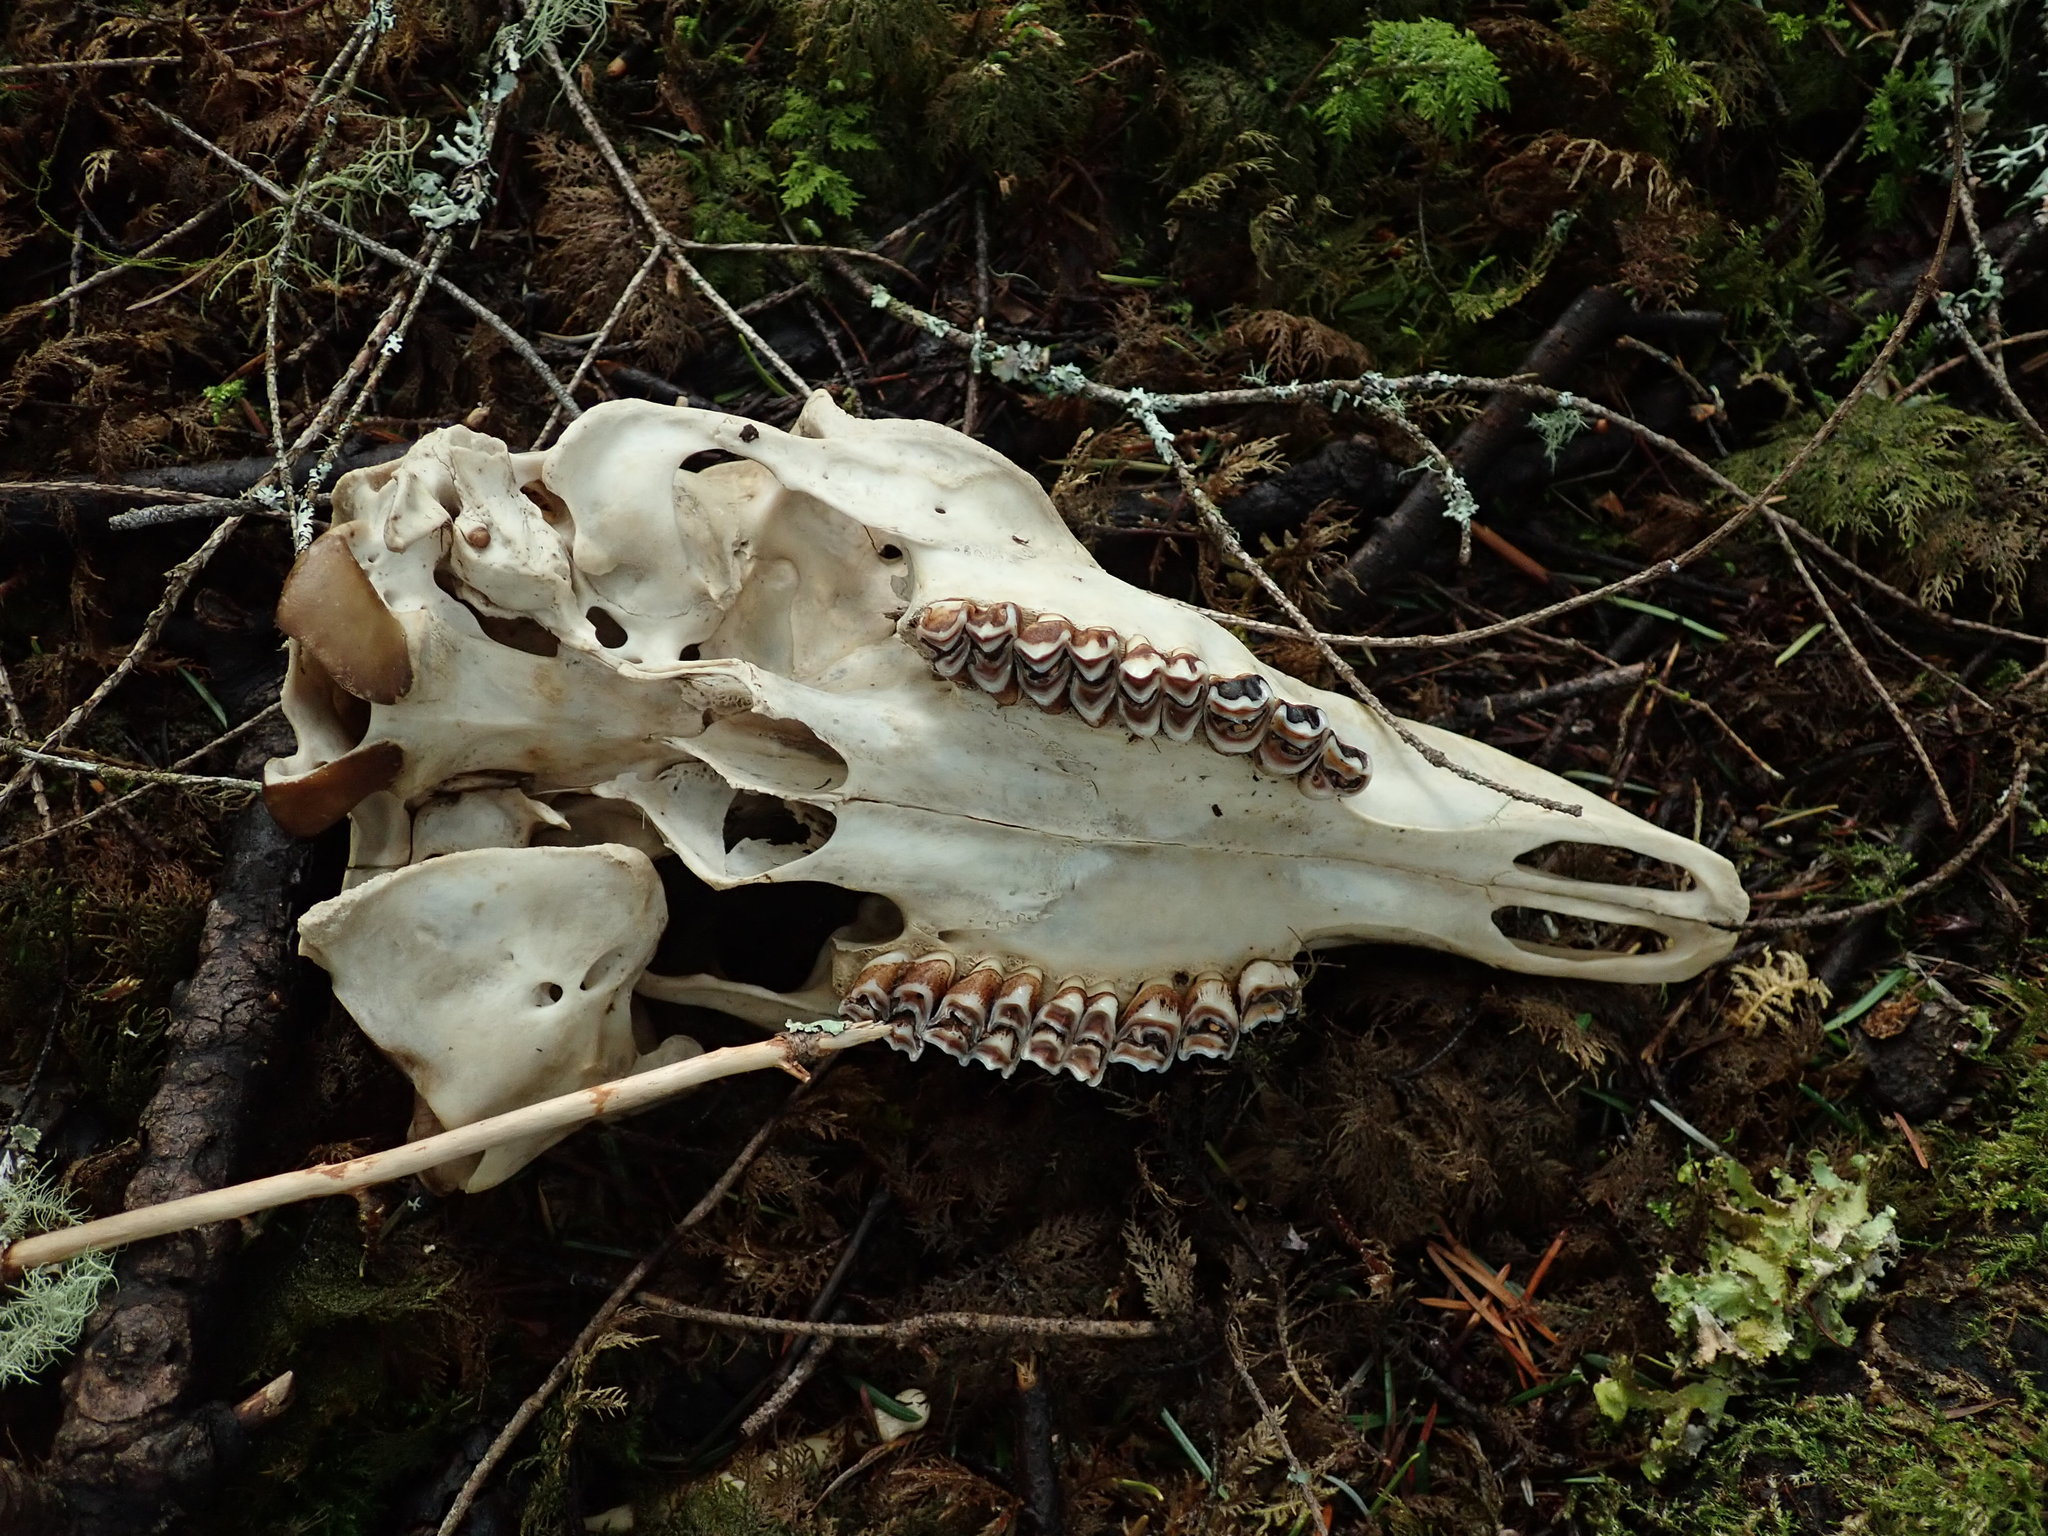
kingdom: Animalia
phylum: Chordata
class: Mammalia
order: Artiodactyla
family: Cervidae
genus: Odocoileus
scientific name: Odocoileus hemionus
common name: Mule deer
